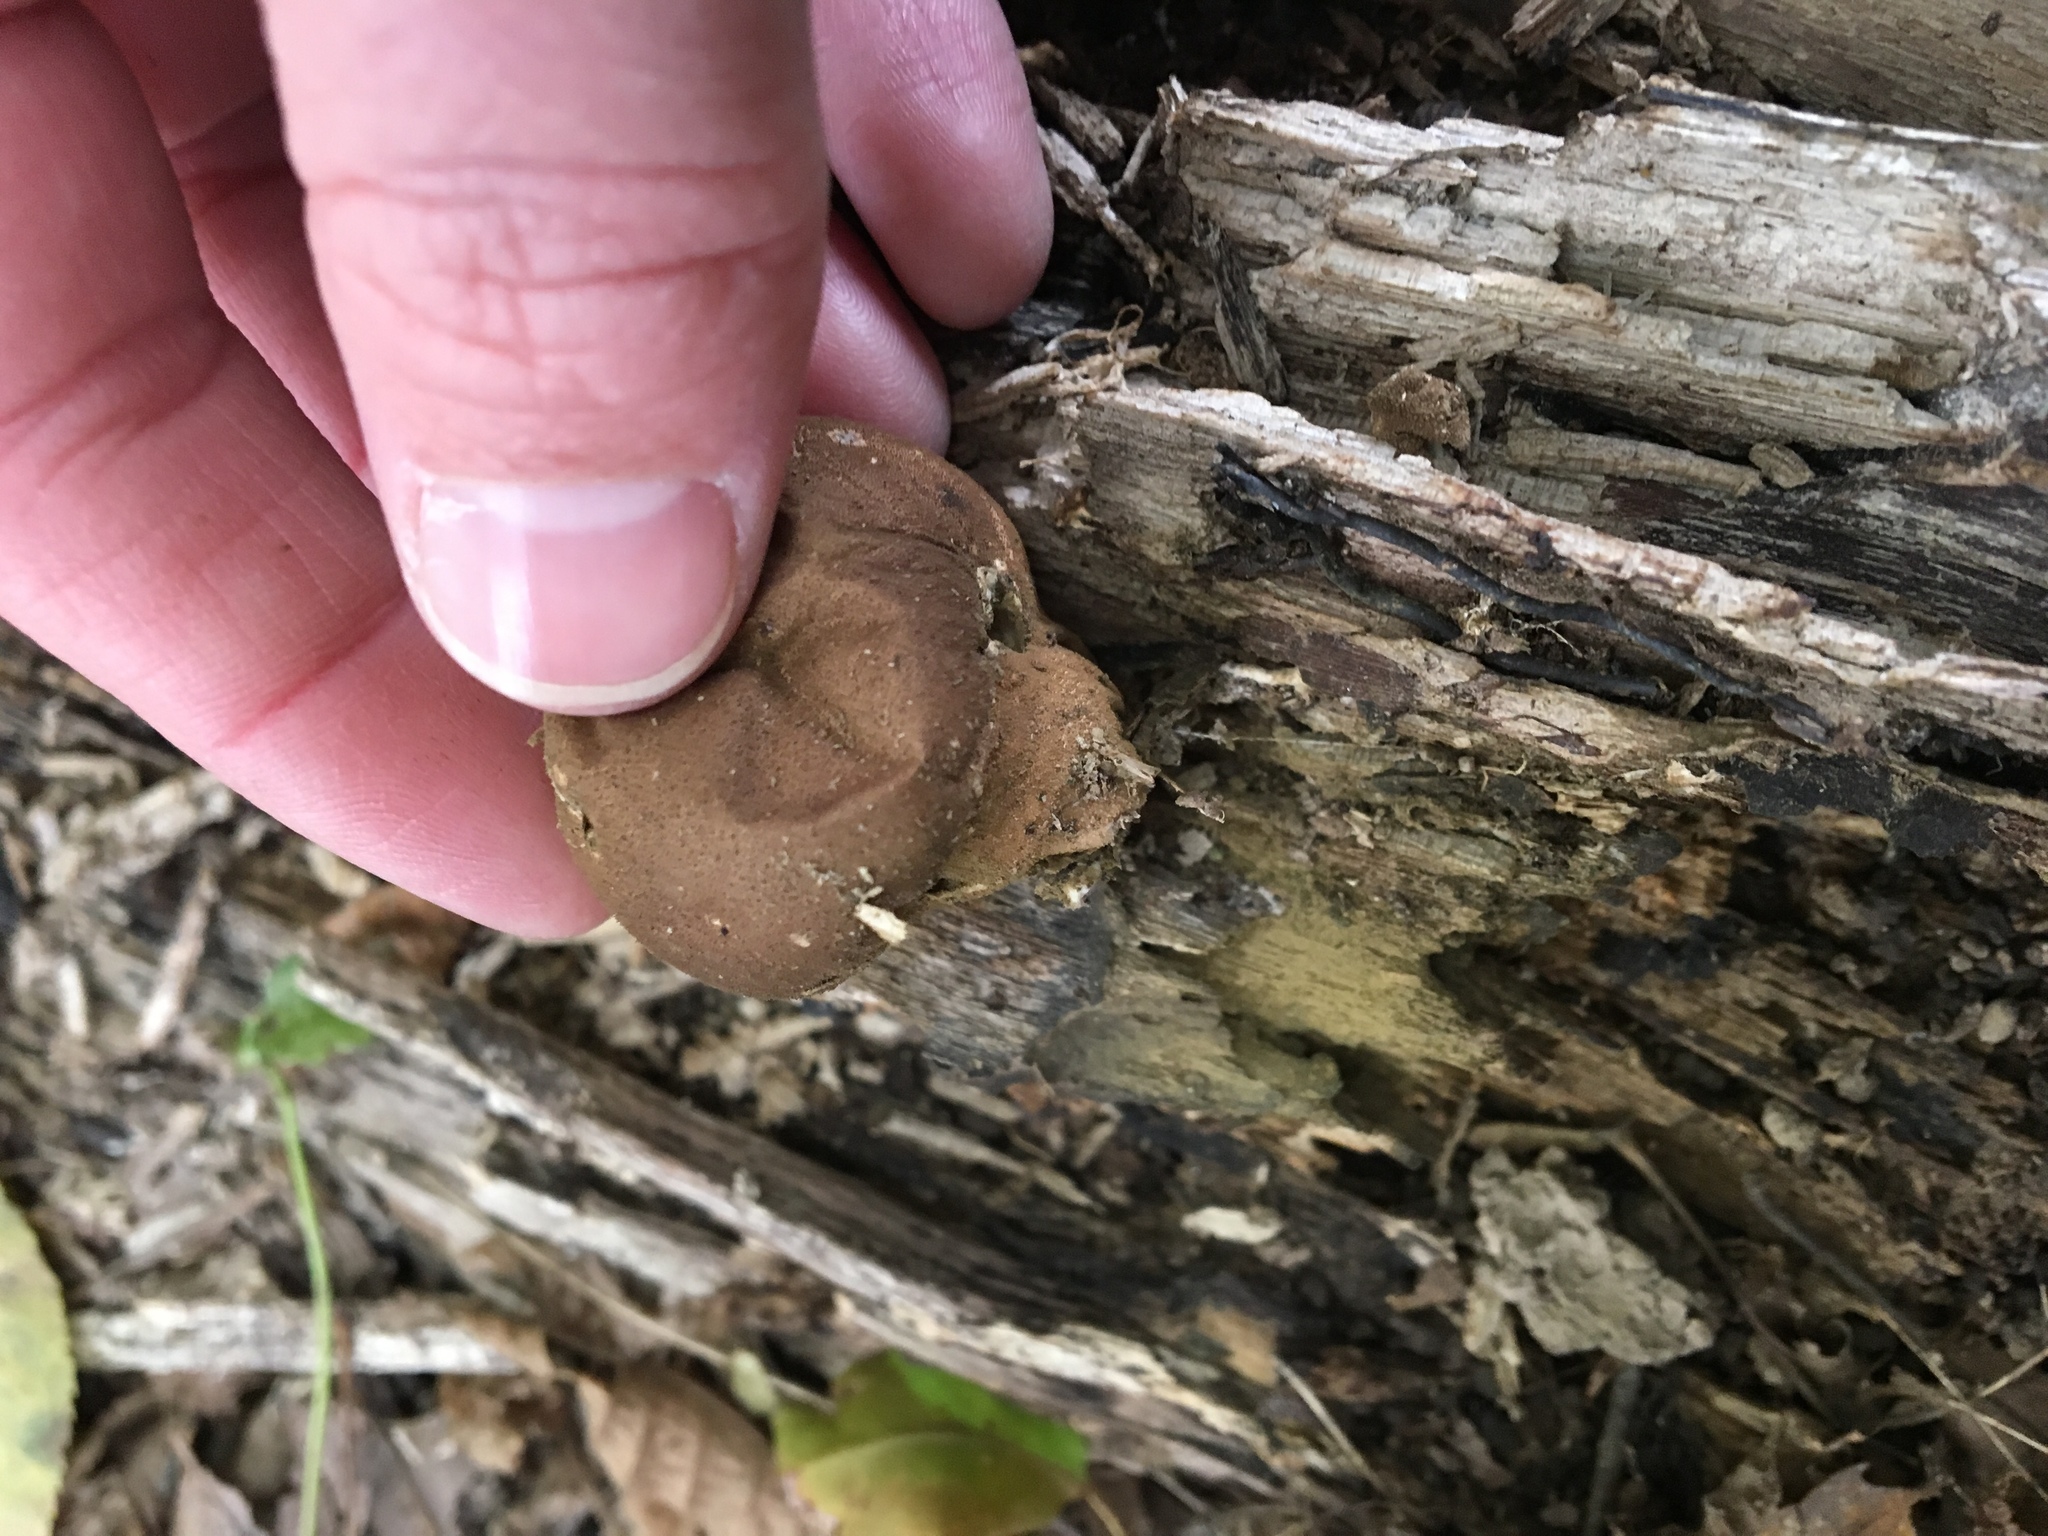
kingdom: Fungi
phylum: Basidiomycota
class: Agaricomycetes
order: Agaricales
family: Lycoperdaceae
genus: Apioperdon
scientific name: Apioperdon pyriforme
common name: Pear-shaped puffball
